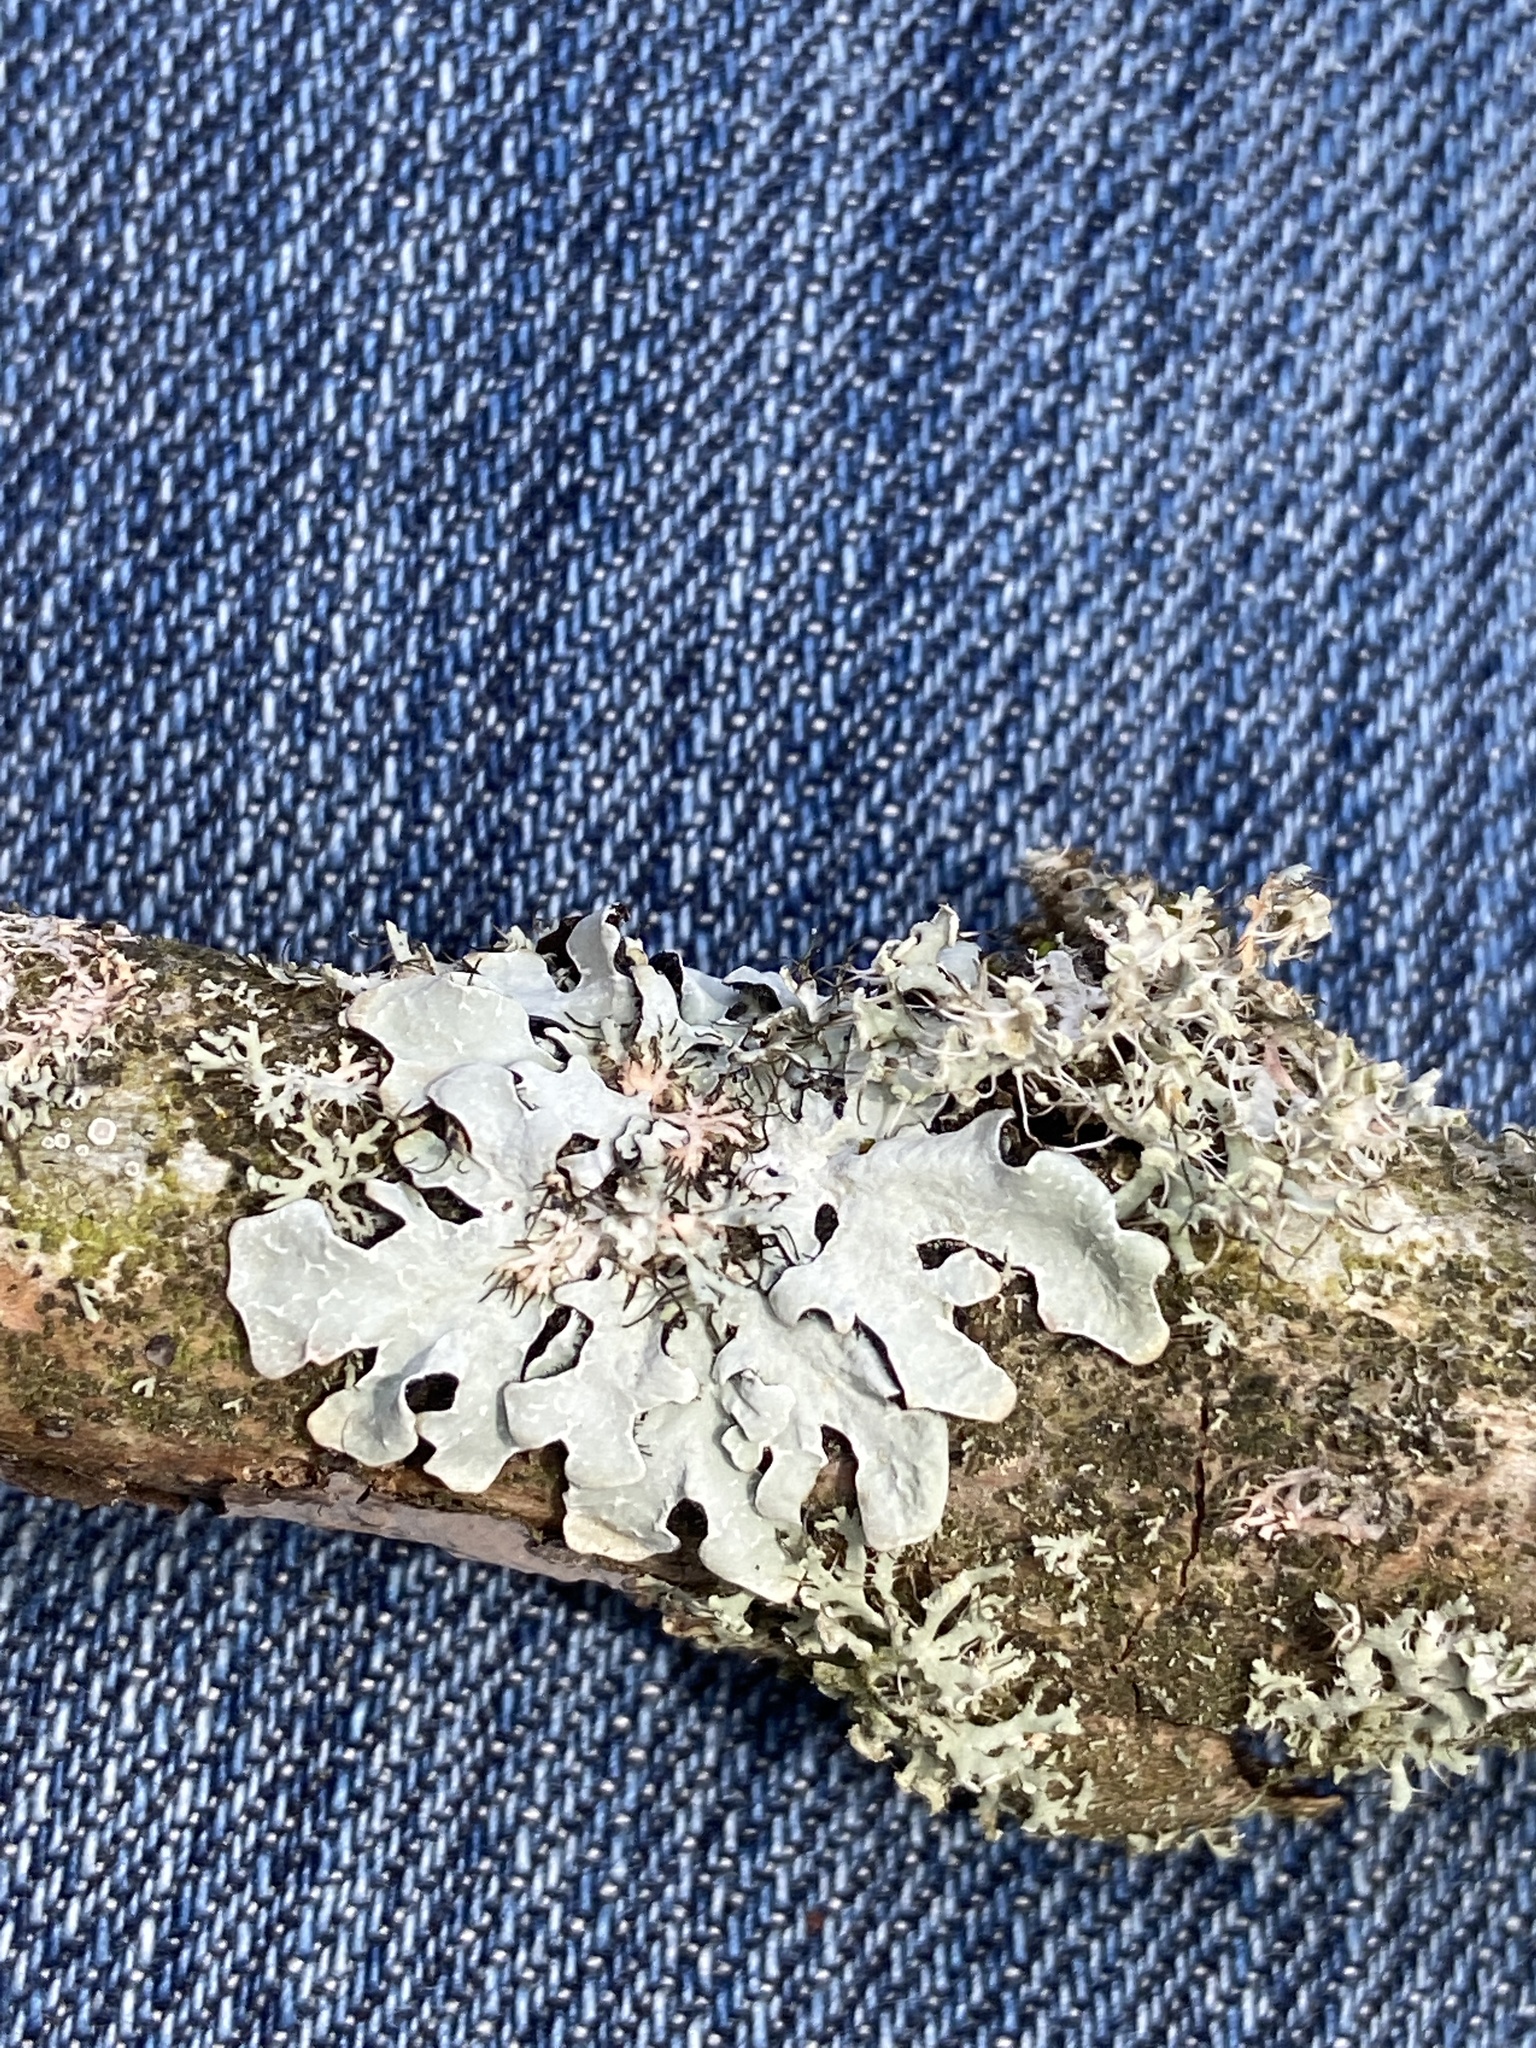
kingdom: Fungi
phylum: Ascomycota
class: Lecanoromycetes
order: Lecanorales
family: Parmeliaceae
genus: Parmelia
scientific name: Parmelia sulcata
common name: Netted shield lichen
